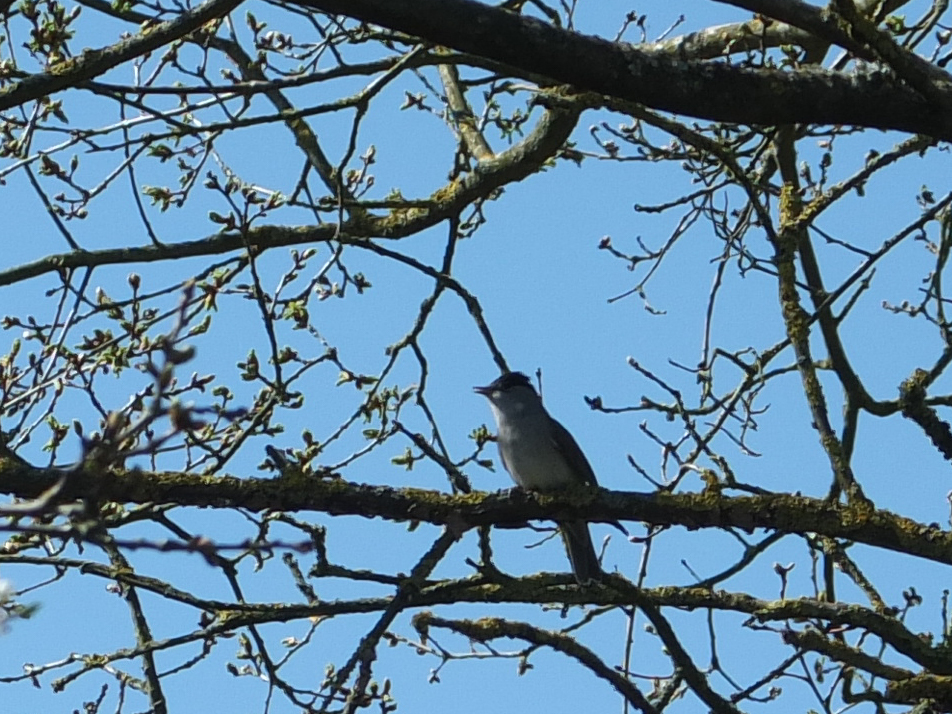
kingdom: Animalia
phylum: Chordata
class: Aves
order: Passeriformes
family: Sylviidae
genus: Sylvia
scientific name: Sylvia atricapilla
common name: Eurasian blackcap
